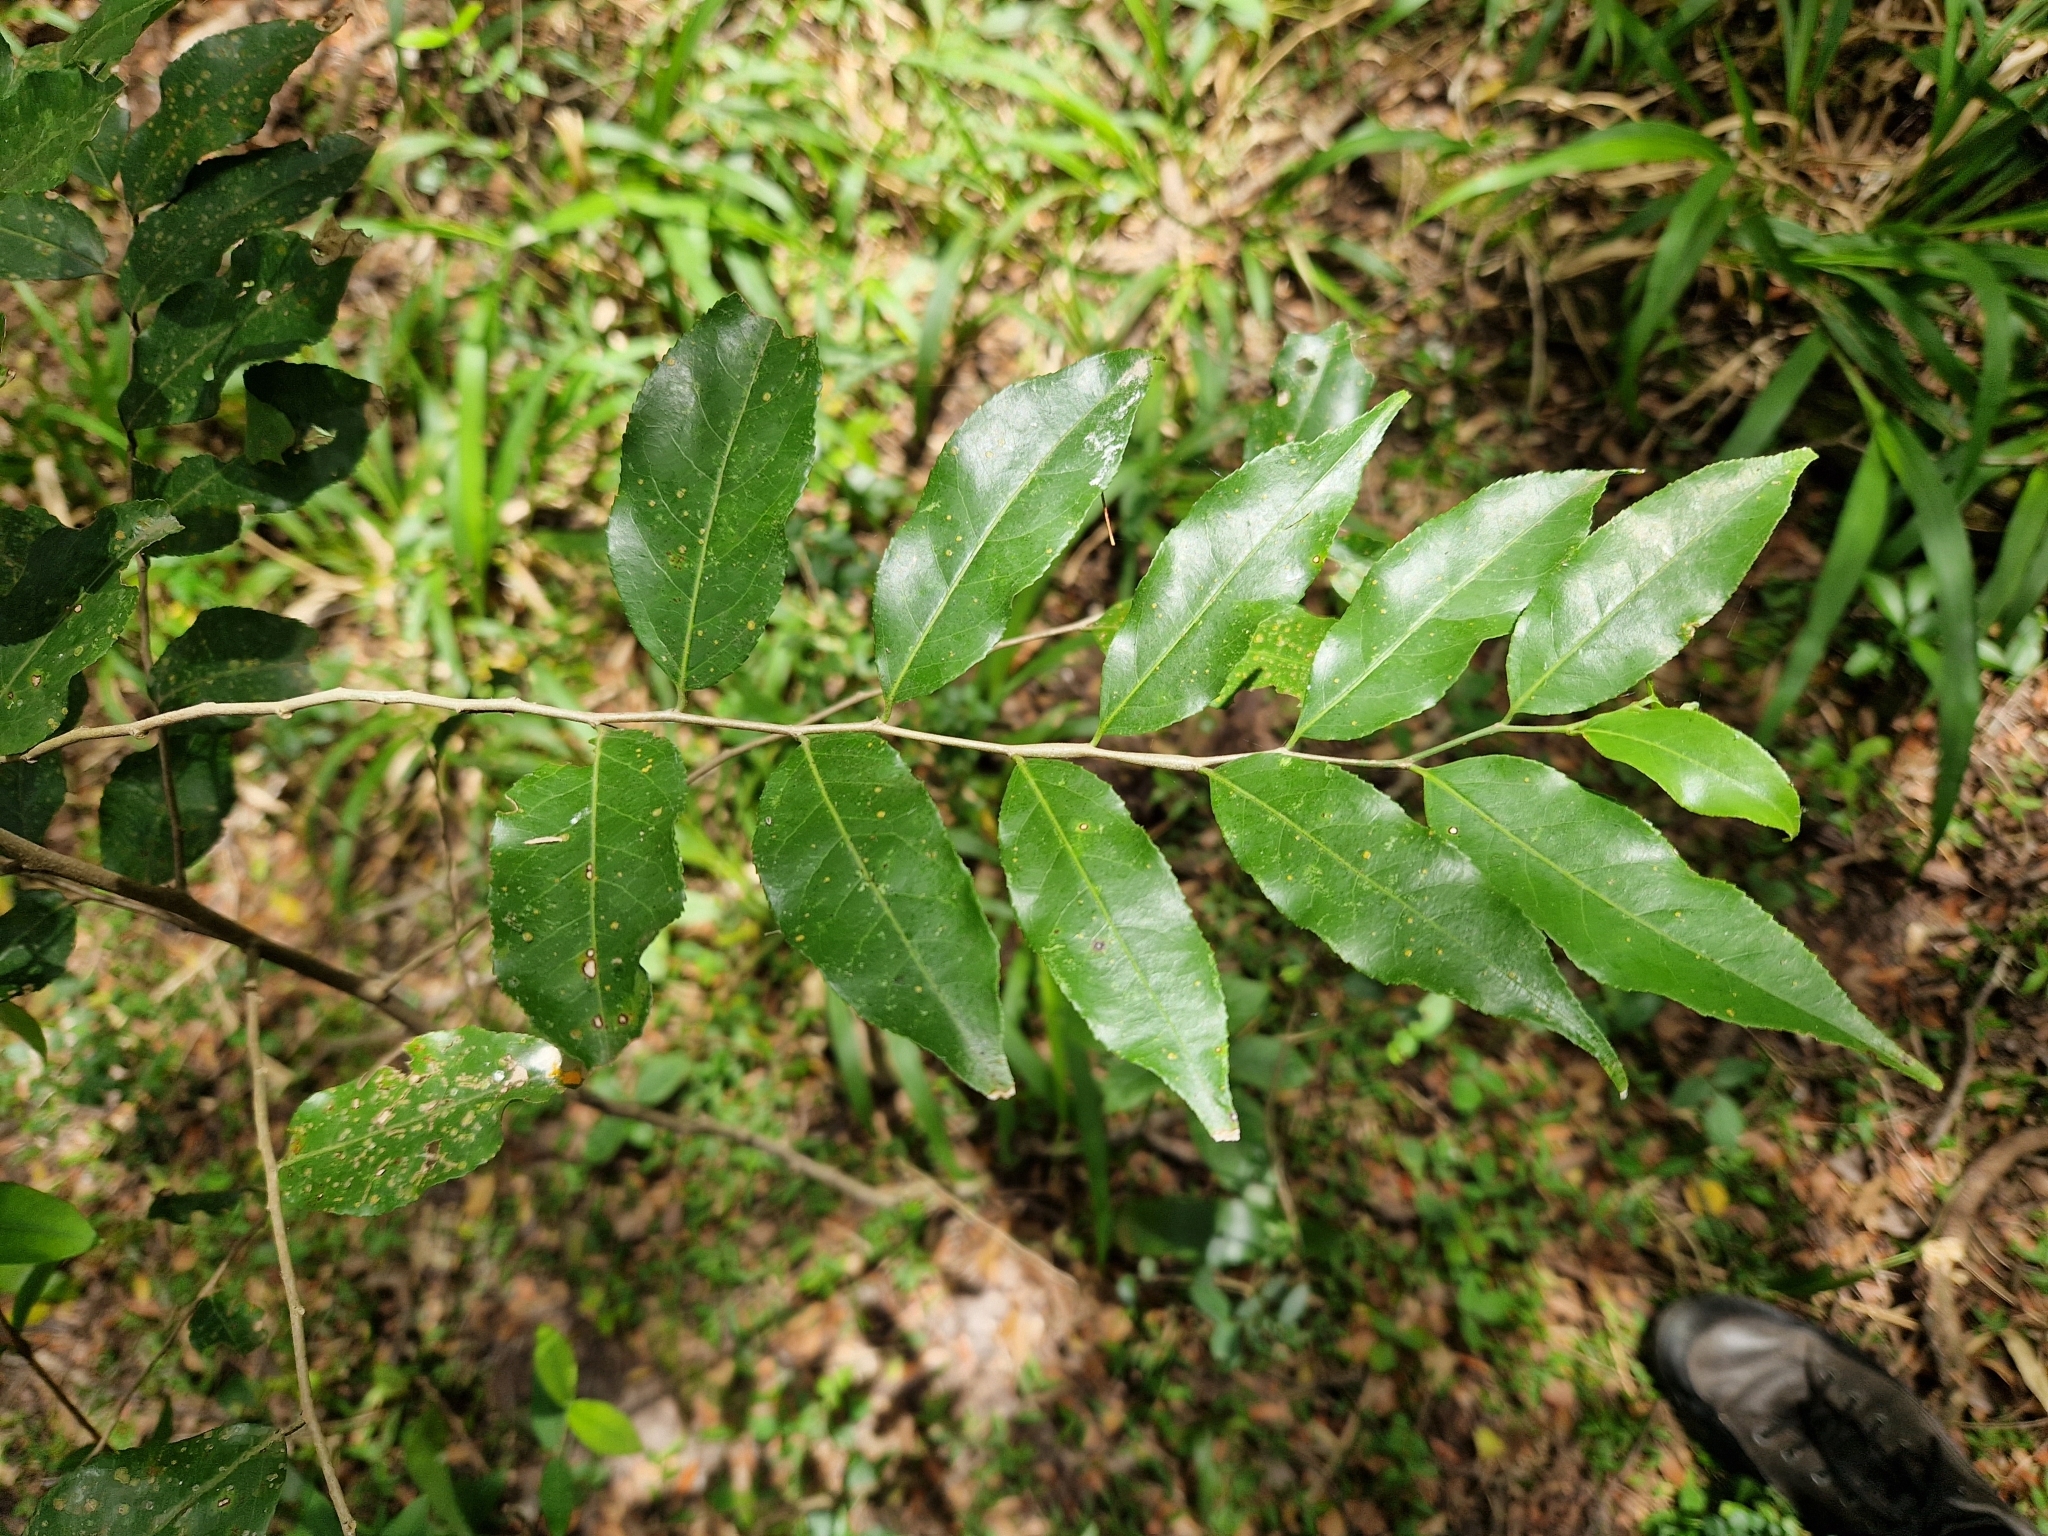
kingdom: Plantae
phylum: Tracheophyta
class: Magnoliopsida
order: Malpighiales
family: Salicaceae
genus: Casearia
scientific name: Casearia sylvestris
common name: Wild sage
